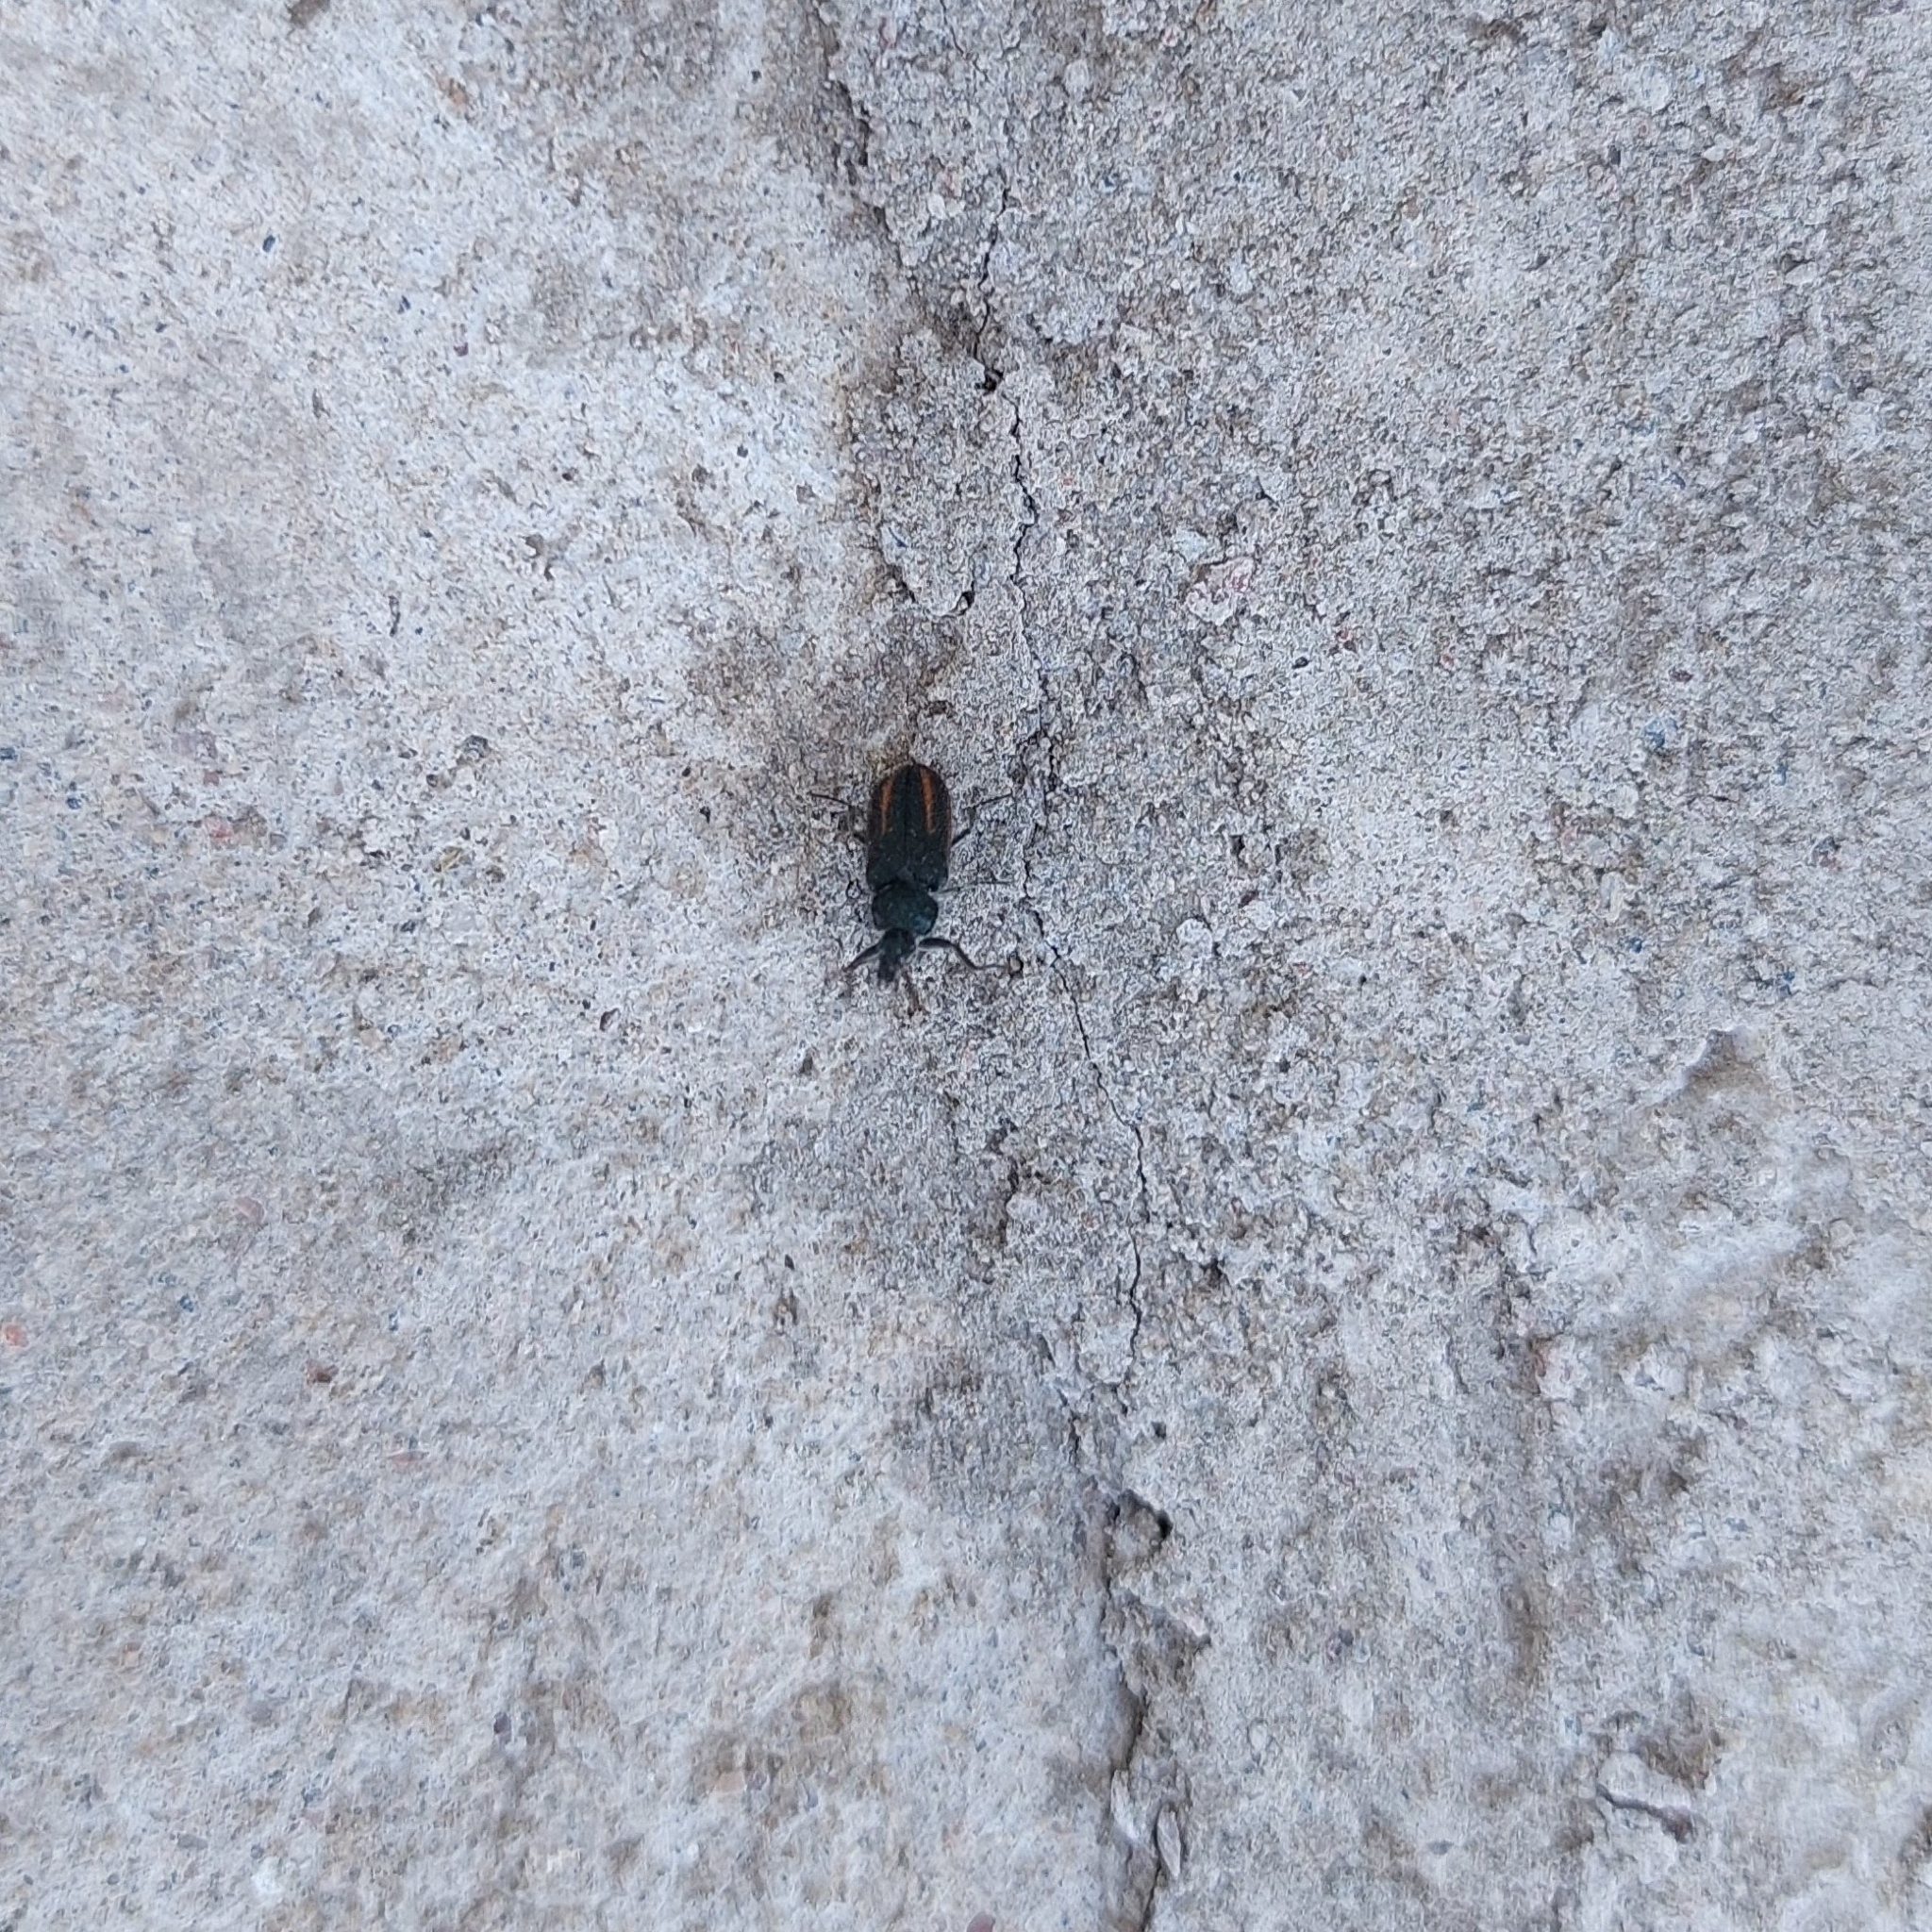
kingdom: Animalia
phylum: Arthropoda
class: Insecta
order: Coleoptera
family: Melyridae
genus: Astylus
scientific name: Astylus
